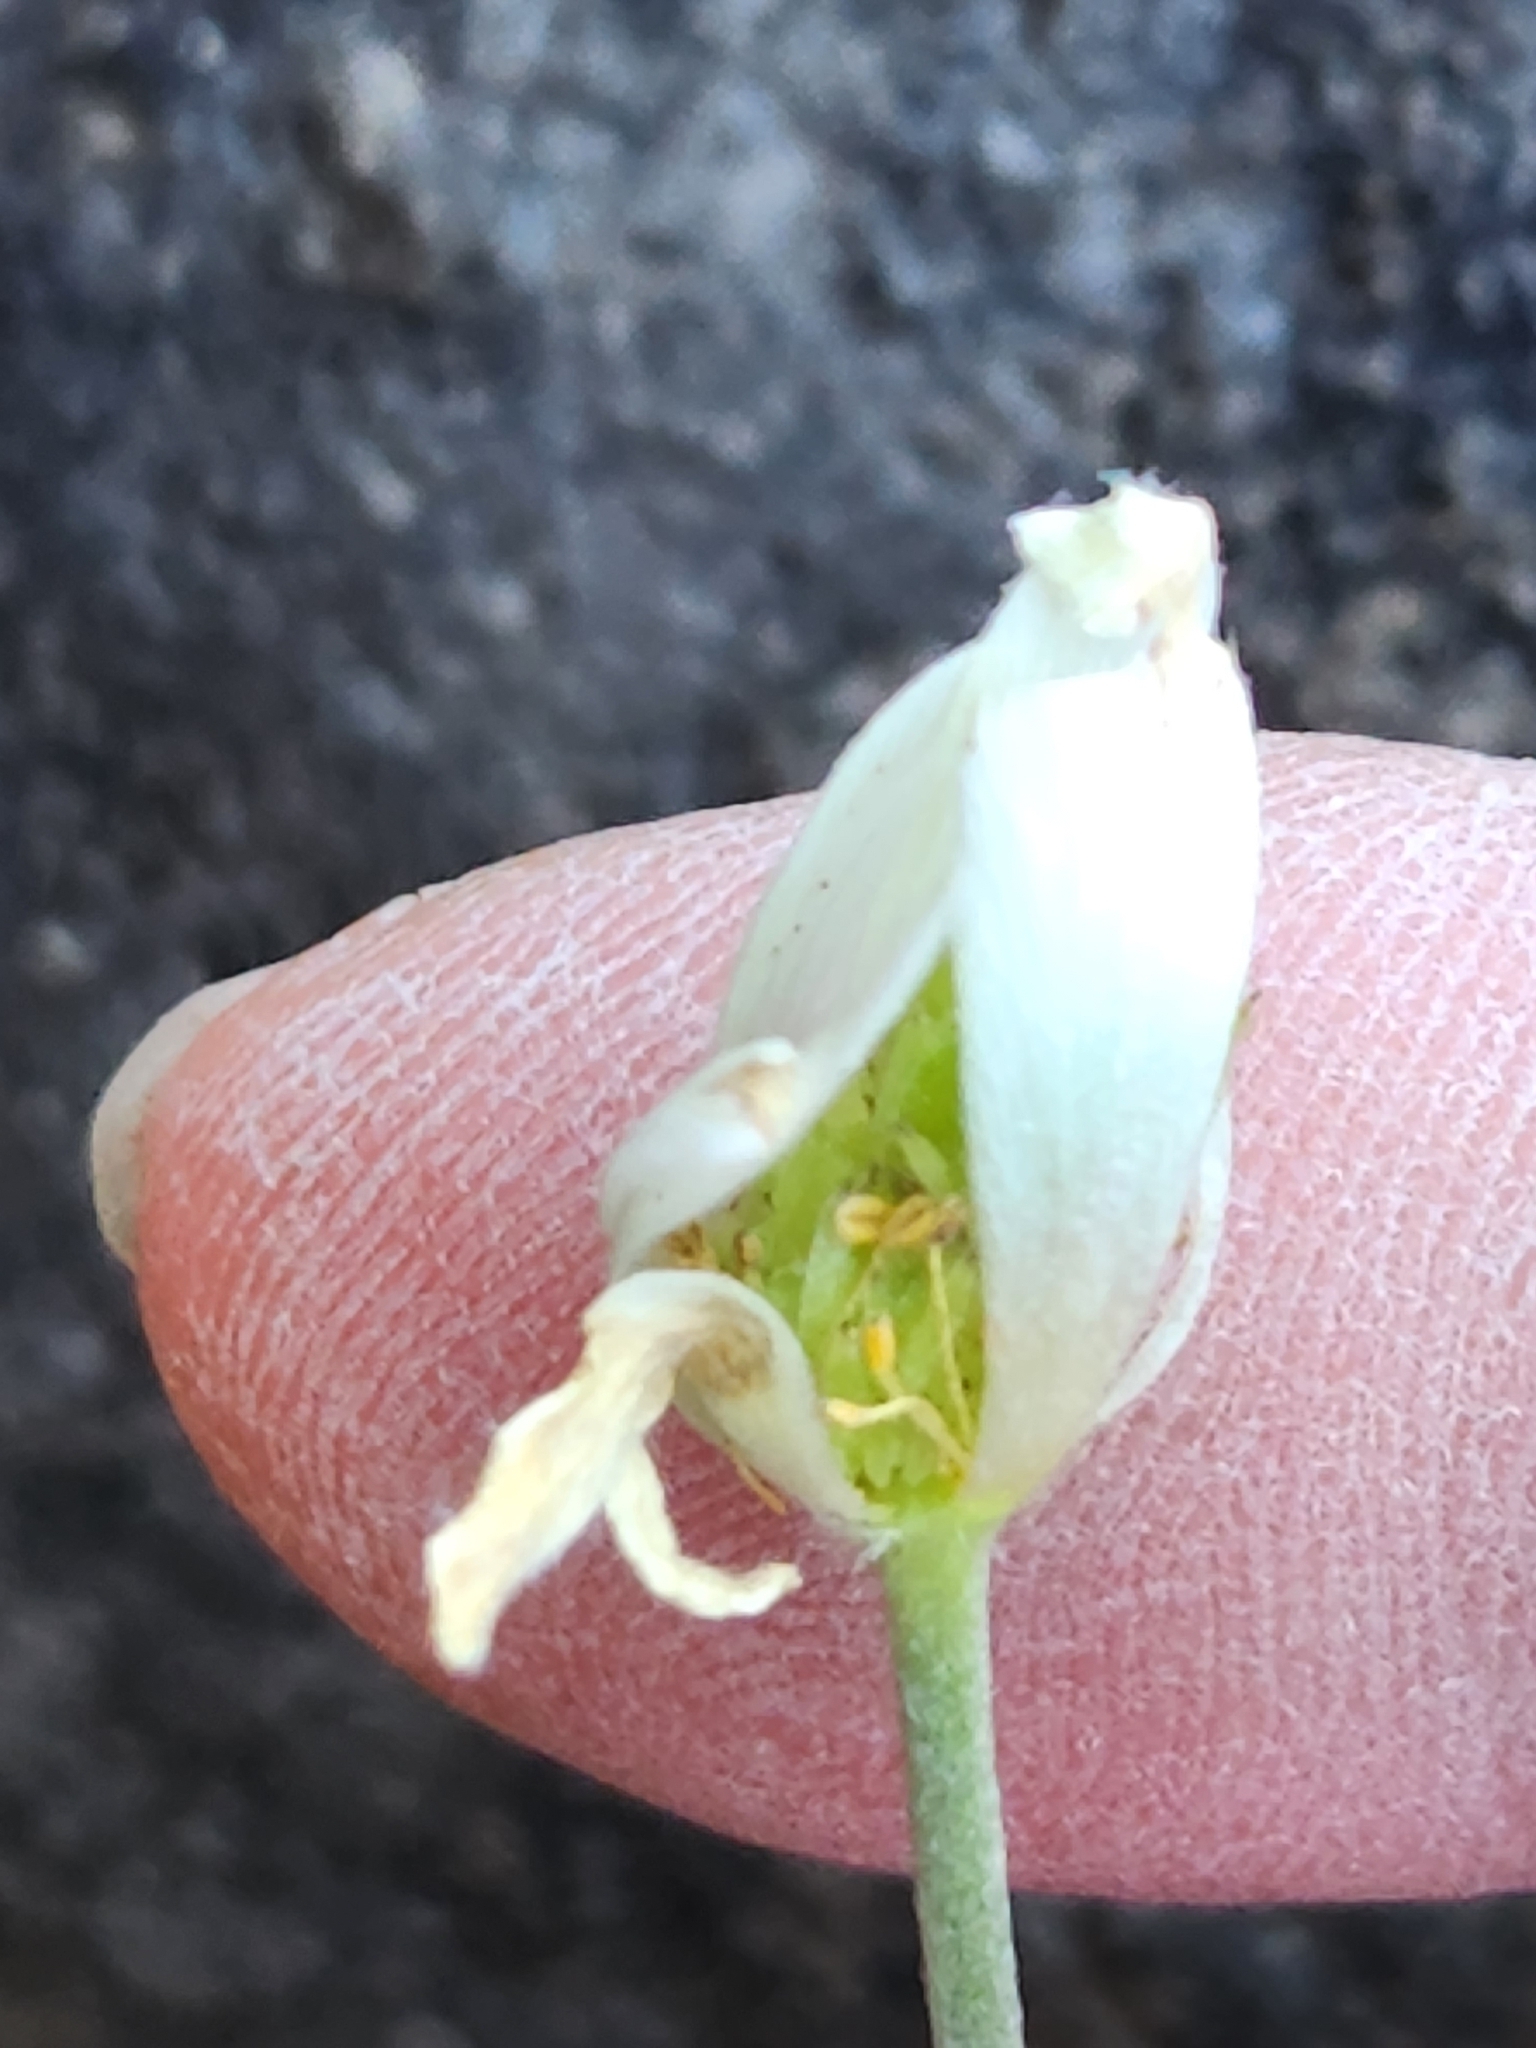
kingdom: Plantae
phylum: Tracheophyta
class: Magnoliopsida
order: Ranunculales
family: Ranunculaceae
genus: Anemone
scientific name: Anemone edwardsiana
